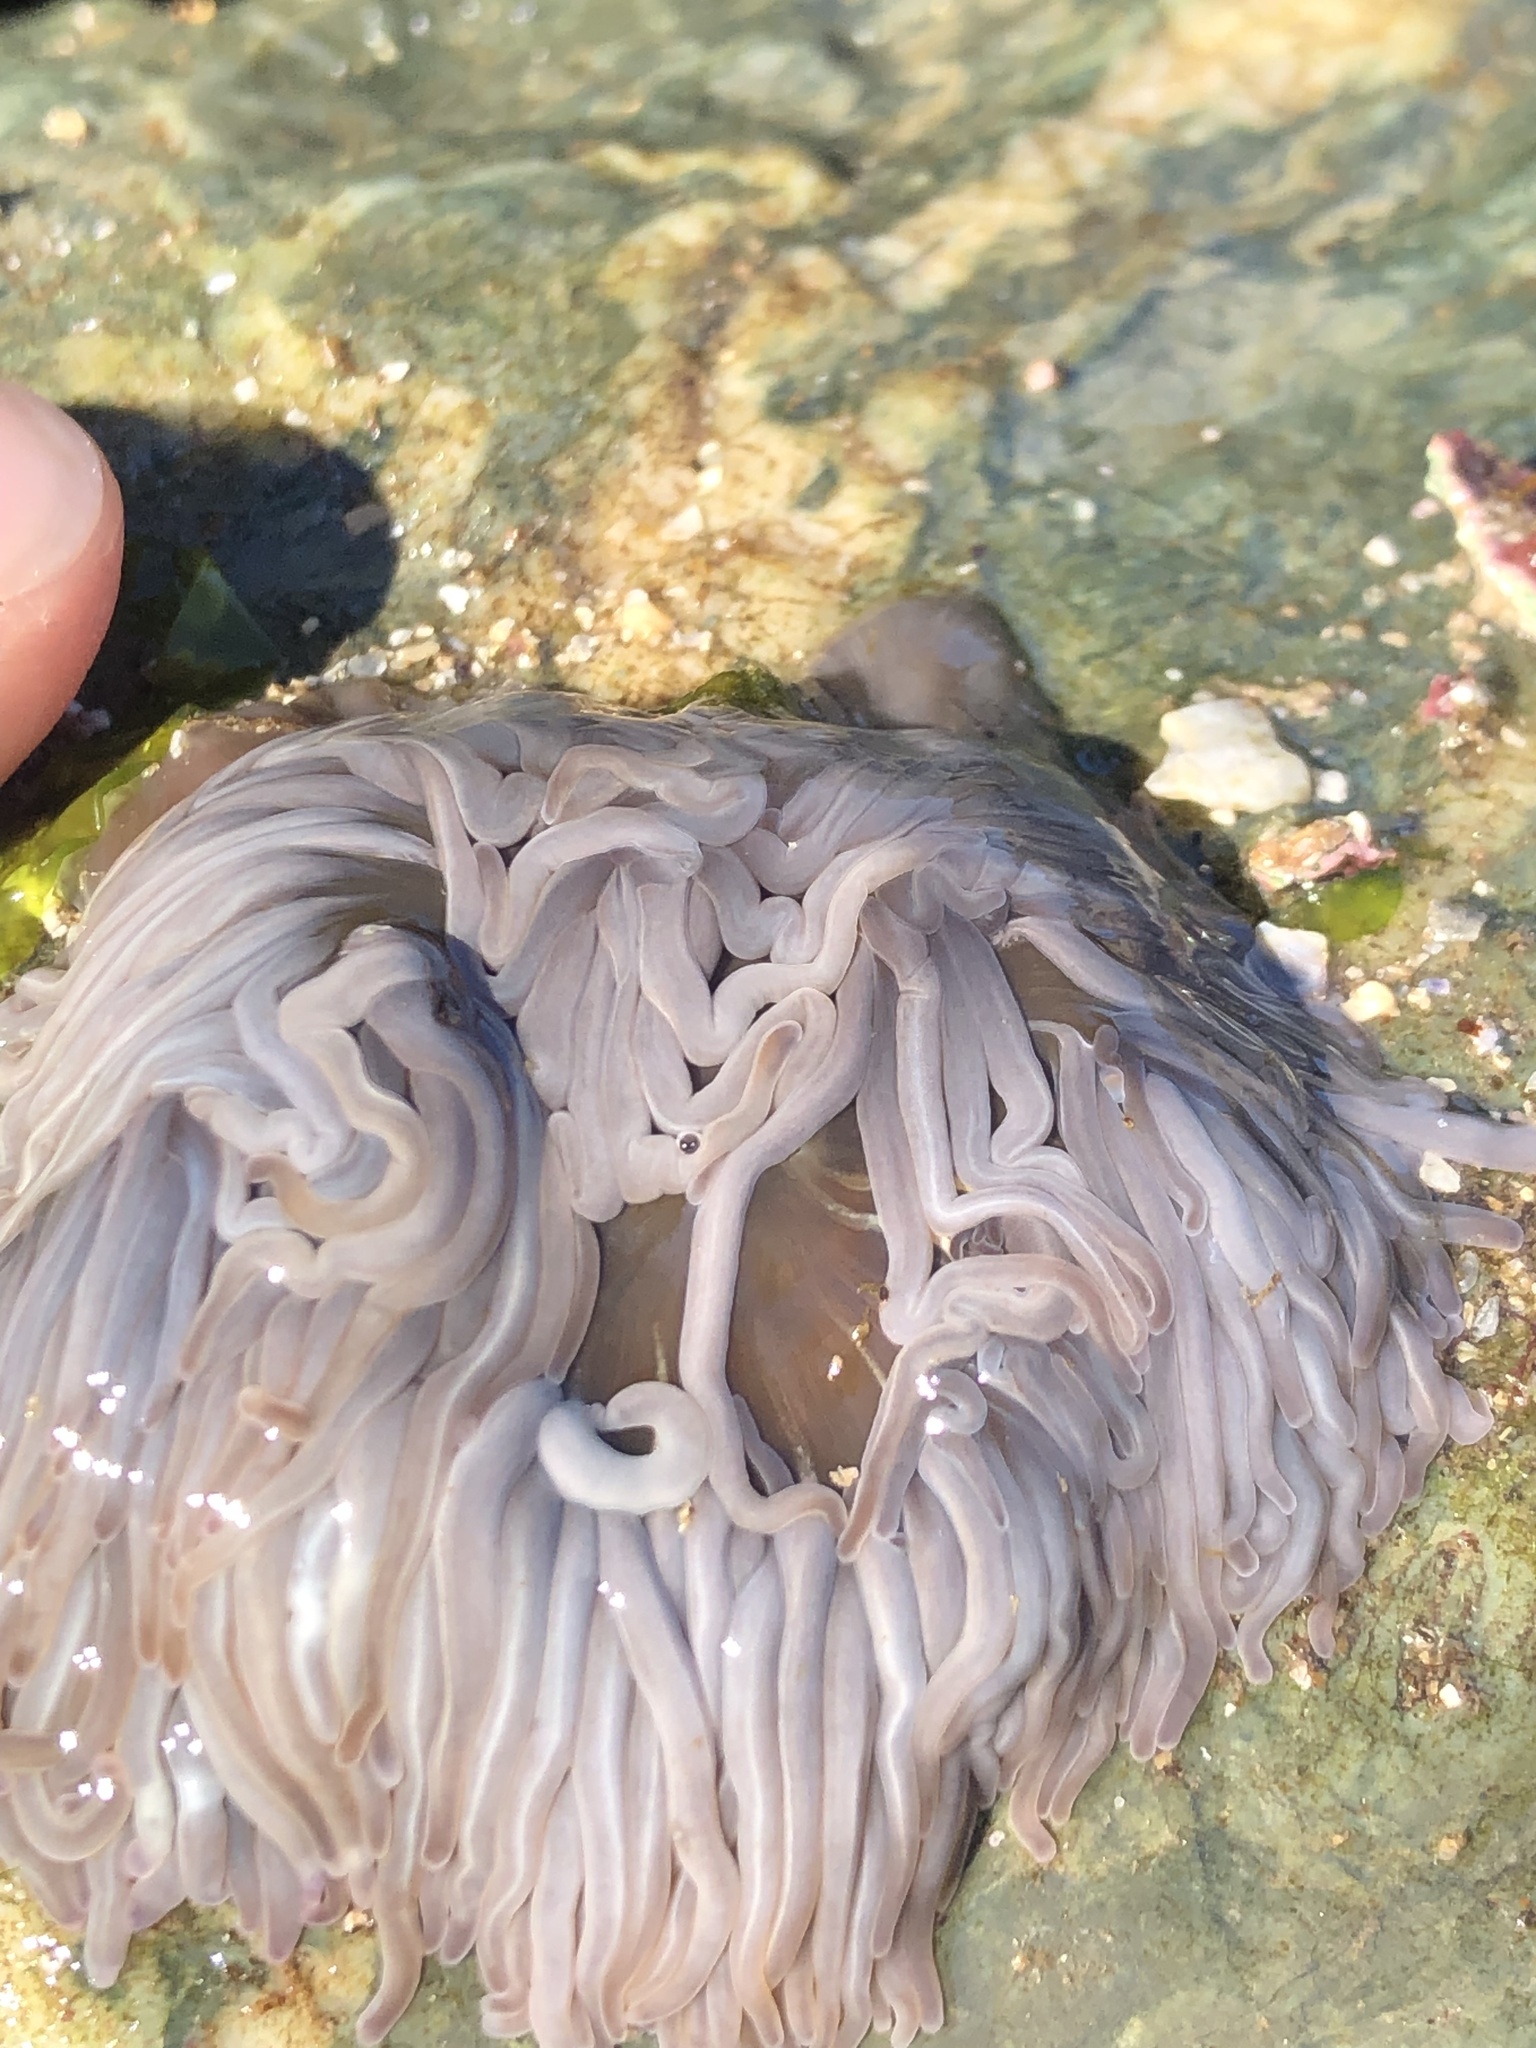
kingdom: Animalia
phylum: Cnidaria
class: Anthozoa
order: Actiniaria
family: Actiniidae
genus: Anemonia
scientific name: Anemonia viridis
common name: Snakelocks anemone
